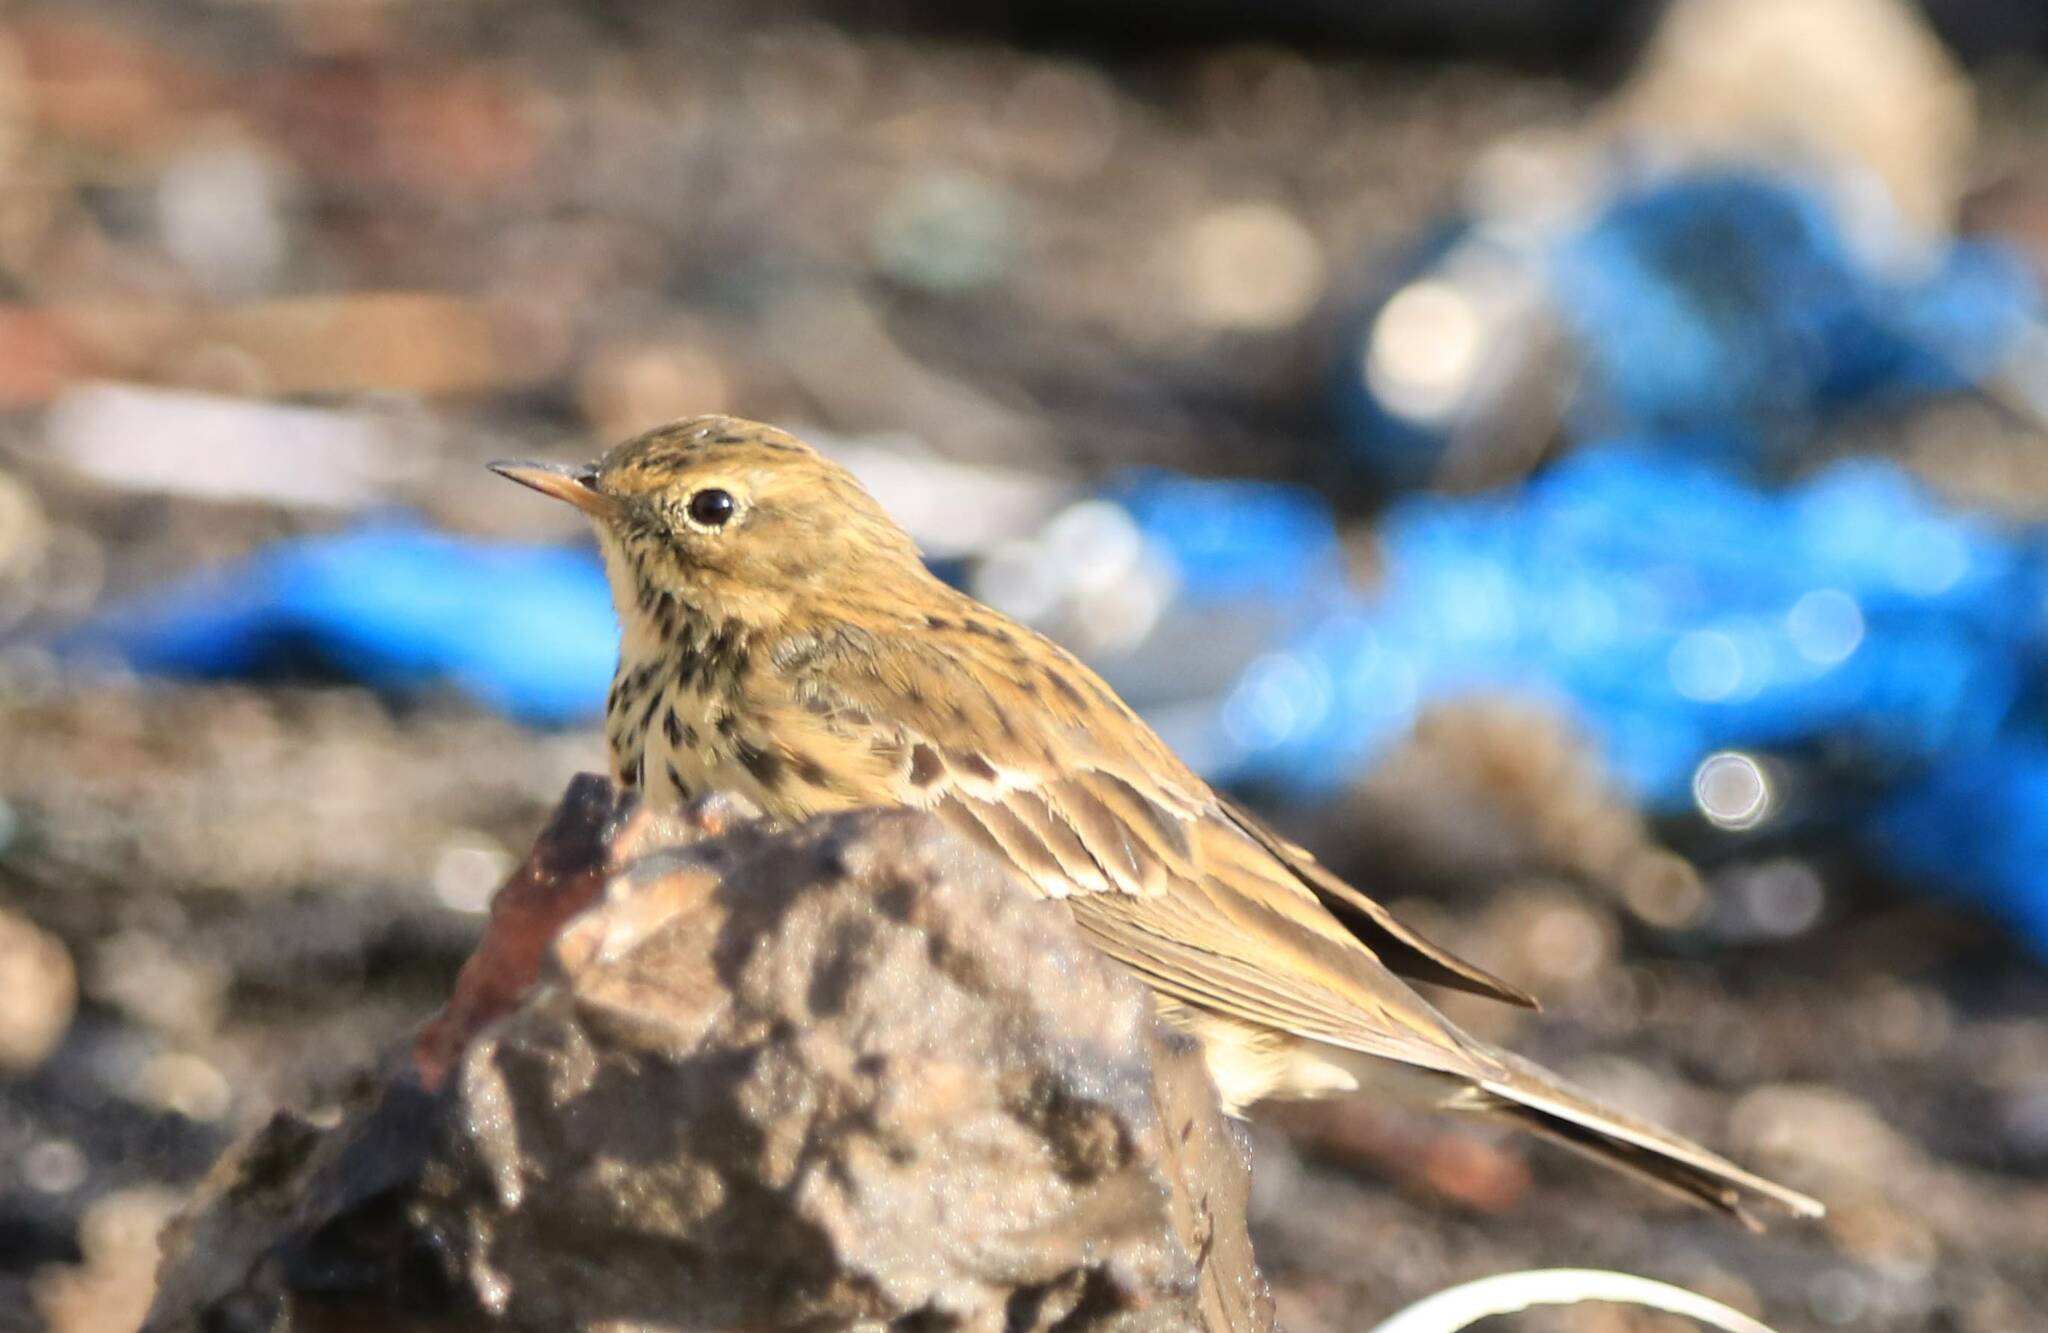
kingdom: Animalia
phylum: Chordata
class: Aves
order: Passeriformes
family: Motacillidae
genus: Anthus
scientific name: Anthus pratensis
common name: Meadow pipit
